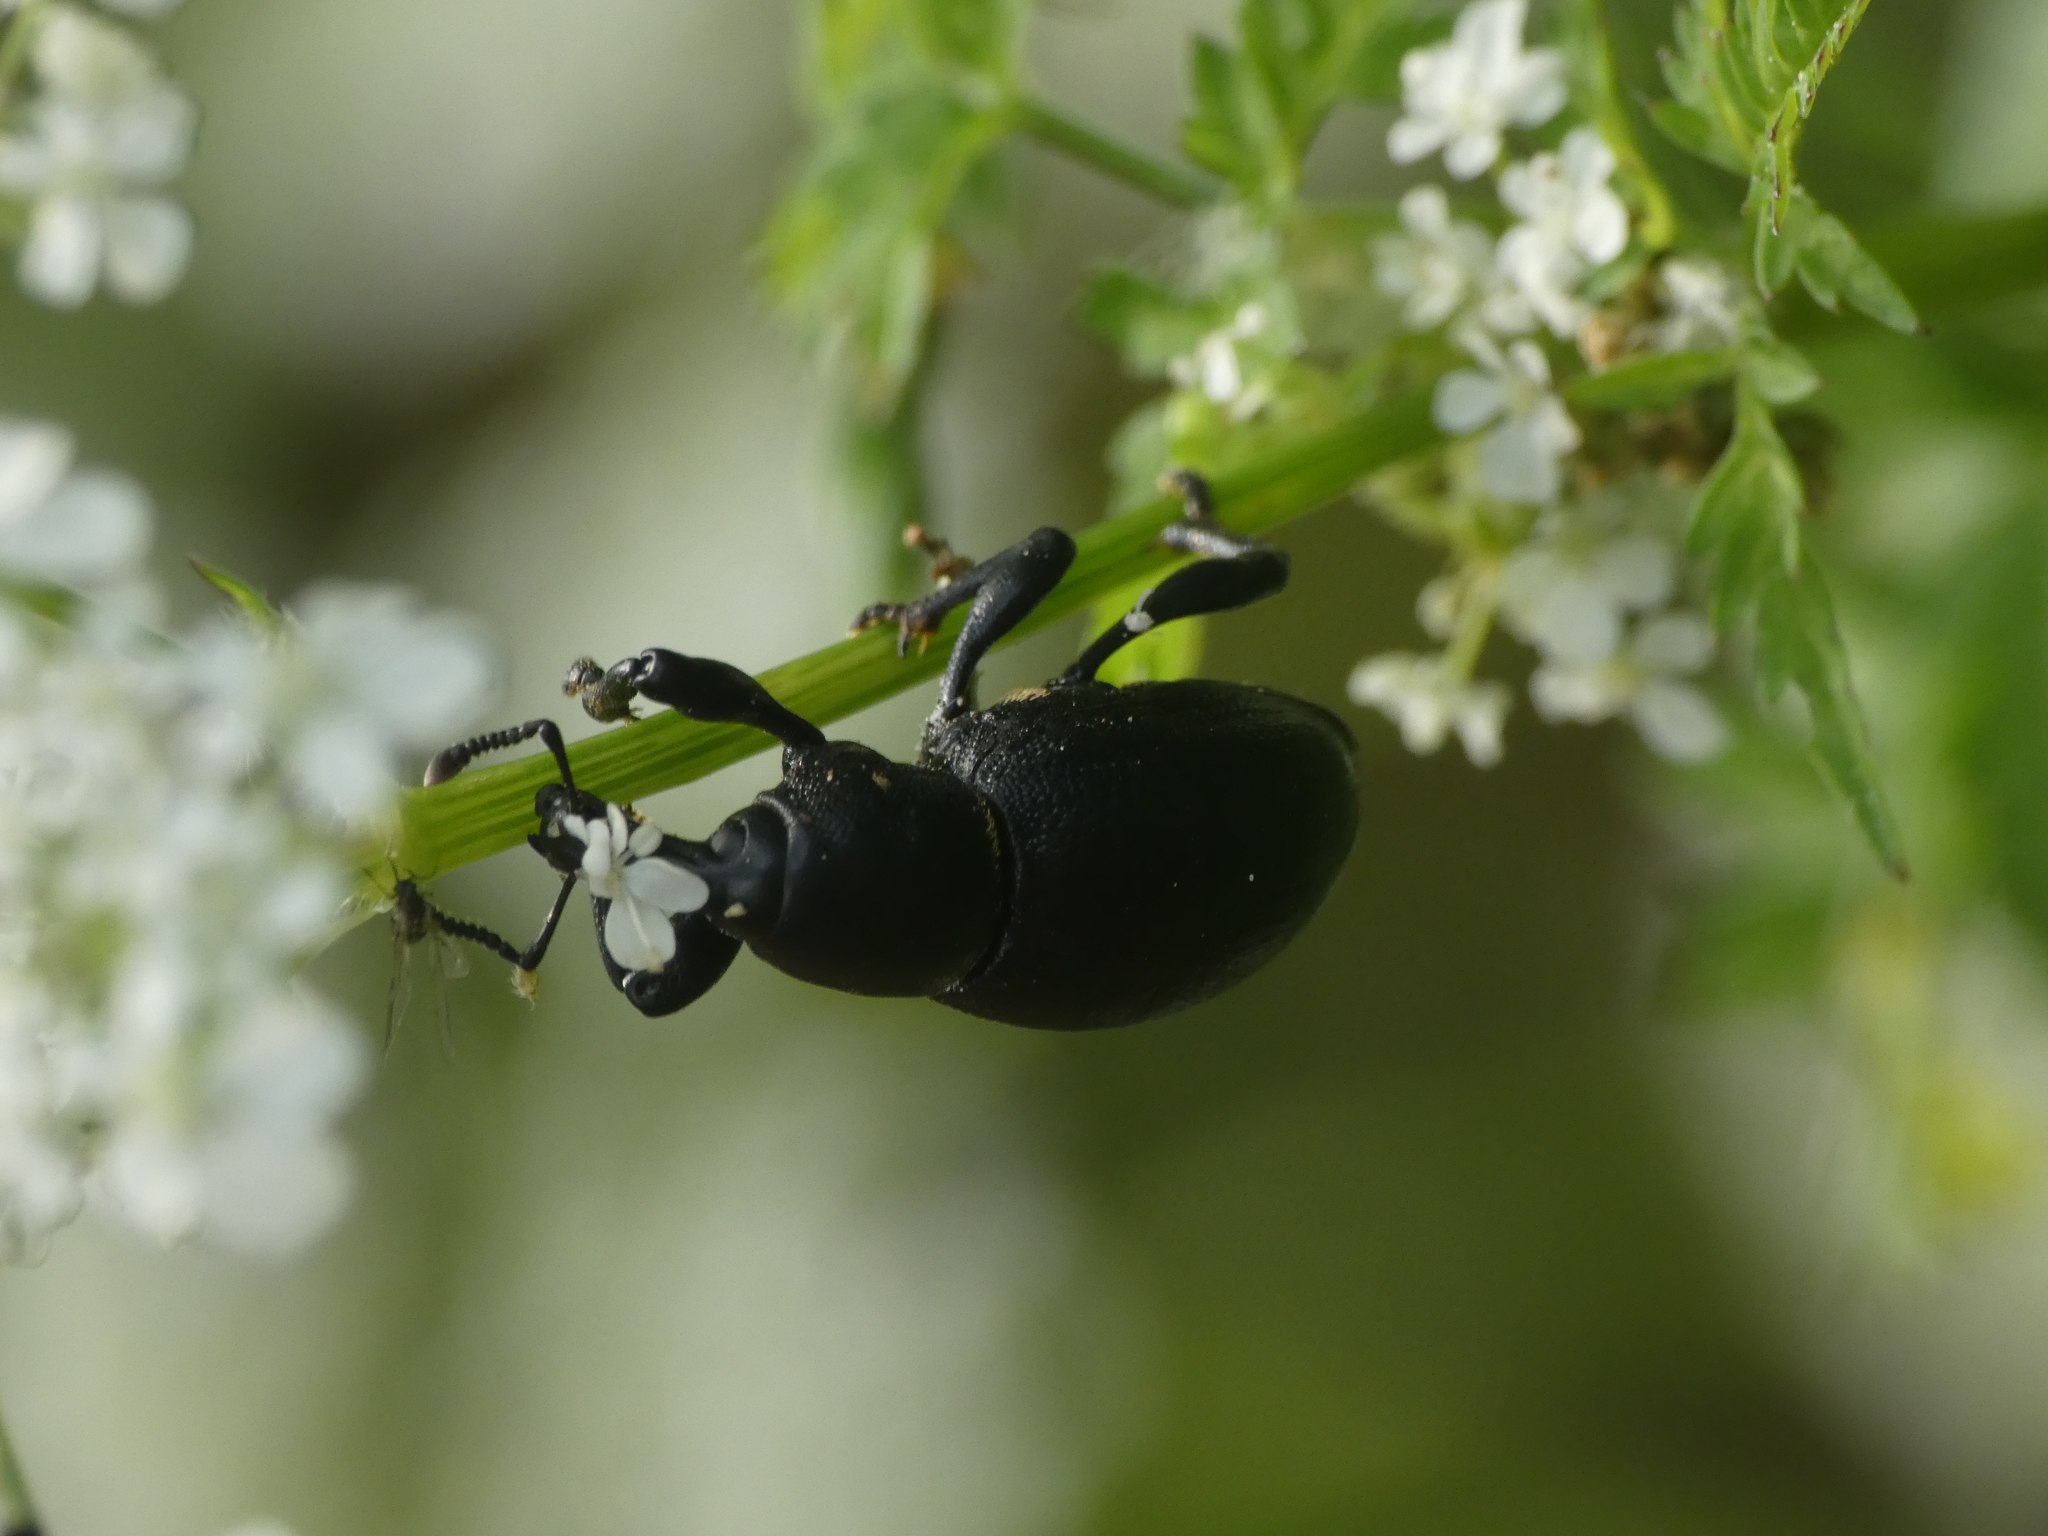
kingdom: Animalia
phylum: Arthropoda
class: Insecta
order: Coleoptera
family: Curculionidae
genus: Liparus
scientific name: Liparus coronatus
